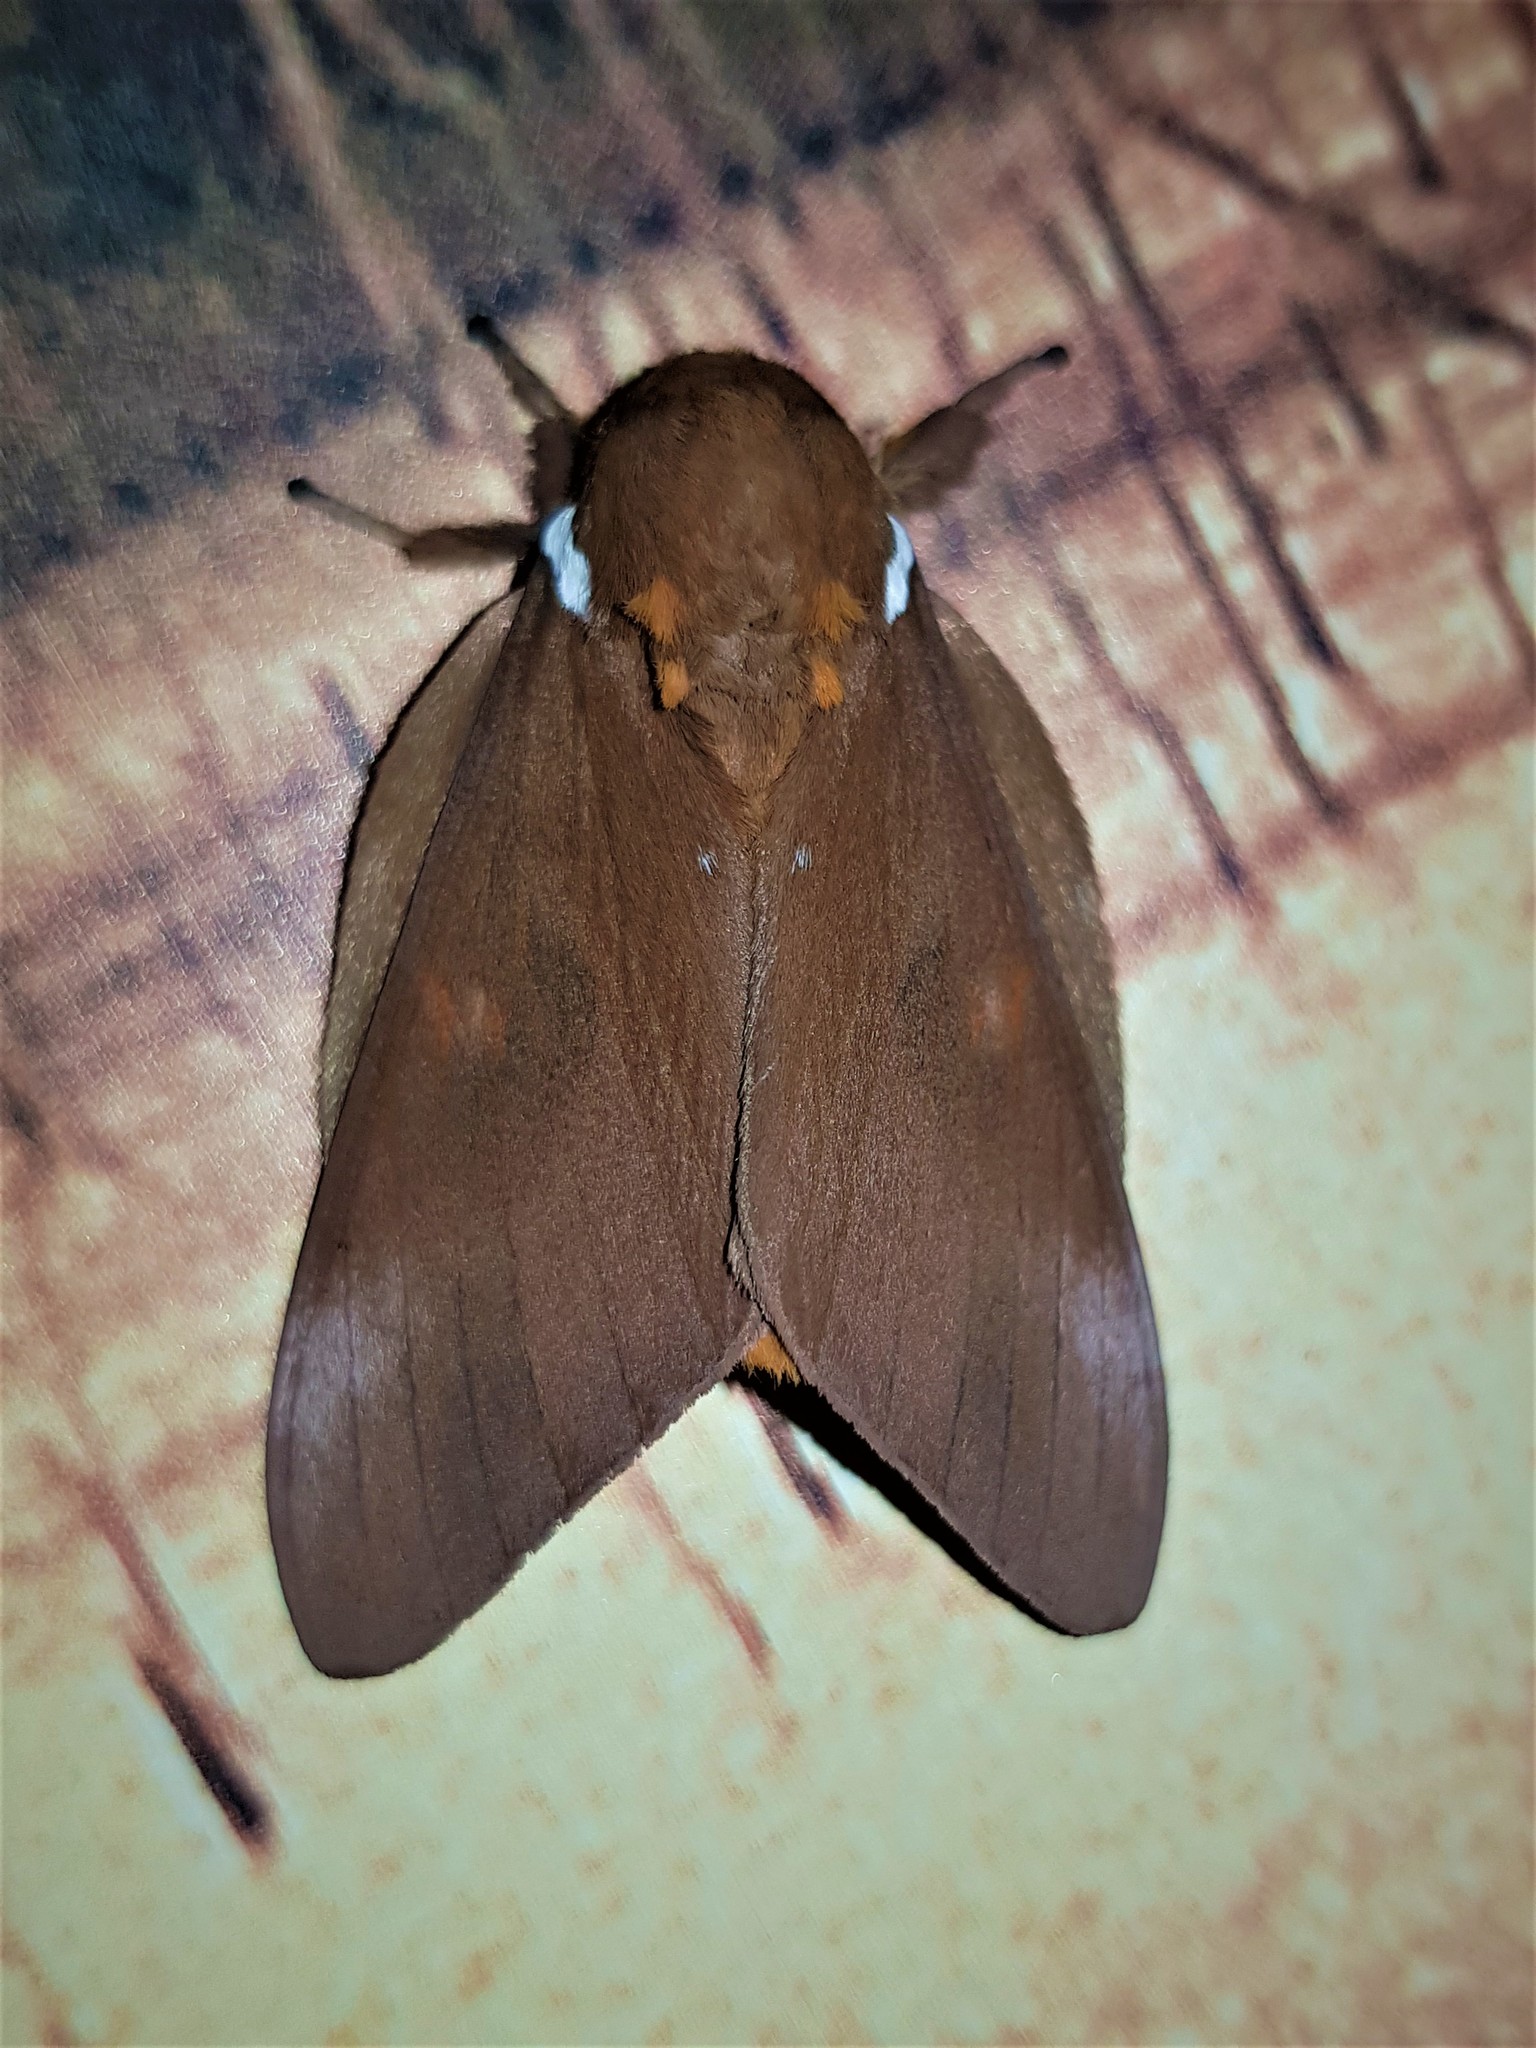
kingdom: Animalia
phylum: Arthropoda
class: Insecta
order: Lepidoptera
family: Saturniidae
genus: Schausiella
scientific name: Schausiella subochreata
